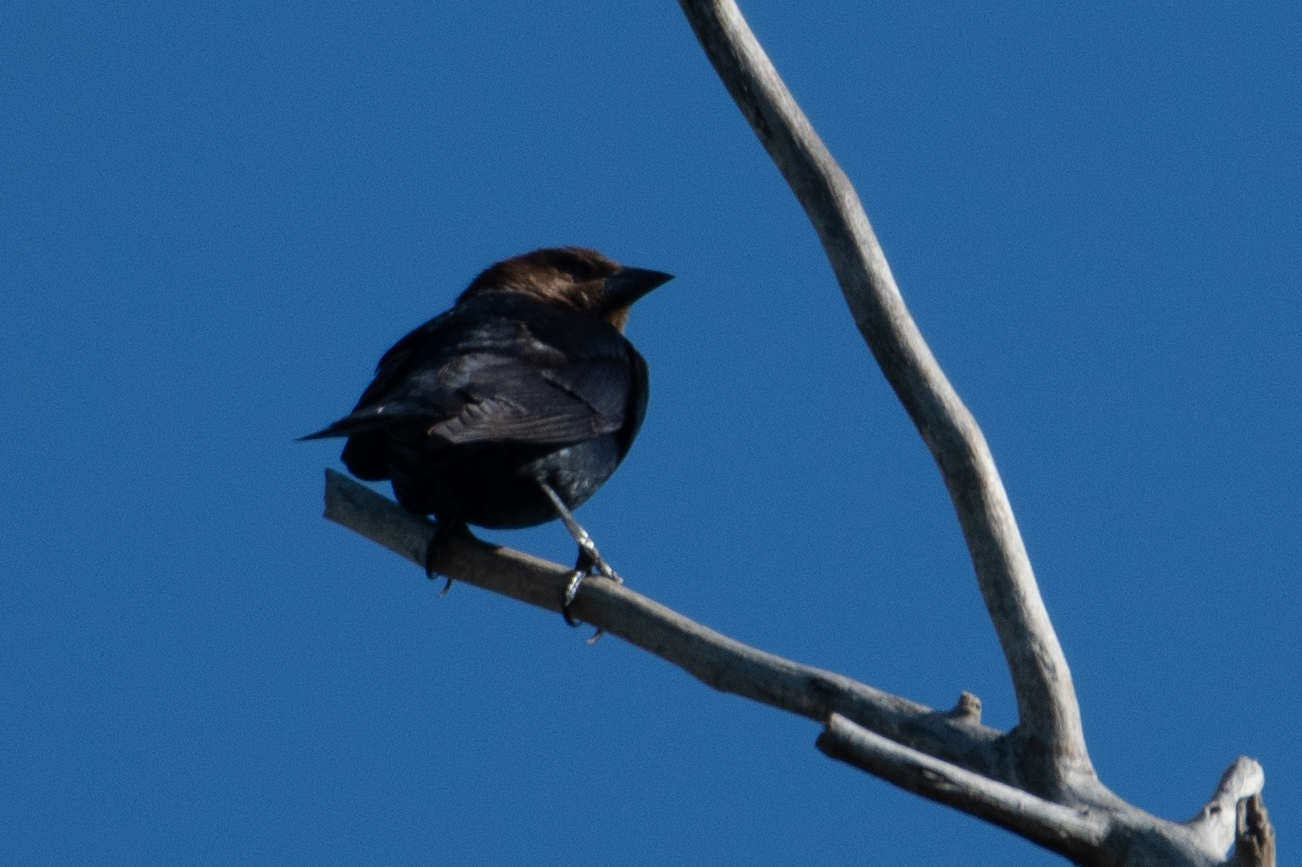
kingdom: Animalia
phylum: Chordata
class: Aves
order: Passeriformes
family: Icteridae
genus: Molothrus
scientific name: Molothrus ater
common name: Brown-headed cowbird
